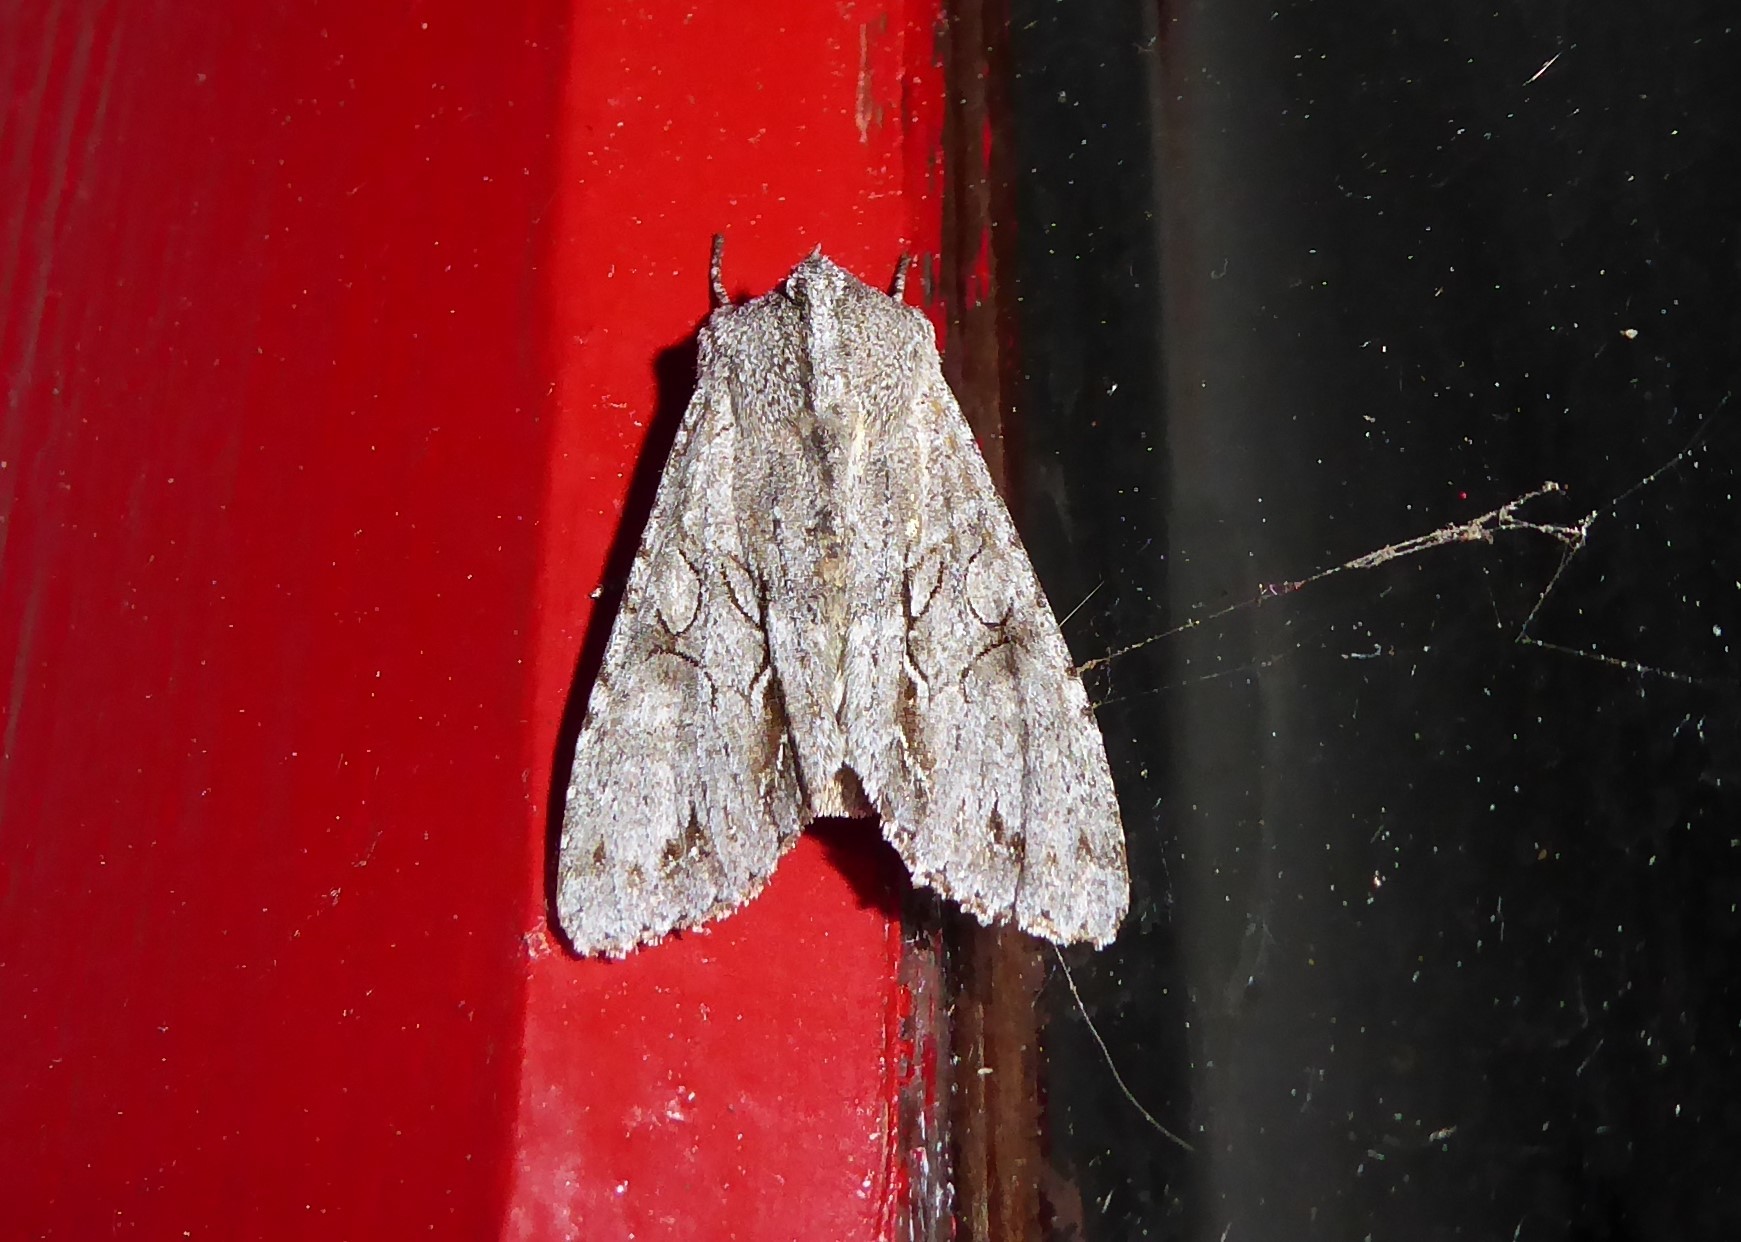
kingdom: Animalia
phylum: Arthropoda
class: Insecta
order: Lepidoptera
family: Noctuidae
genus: Ichneutica
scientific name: Ichneutica
